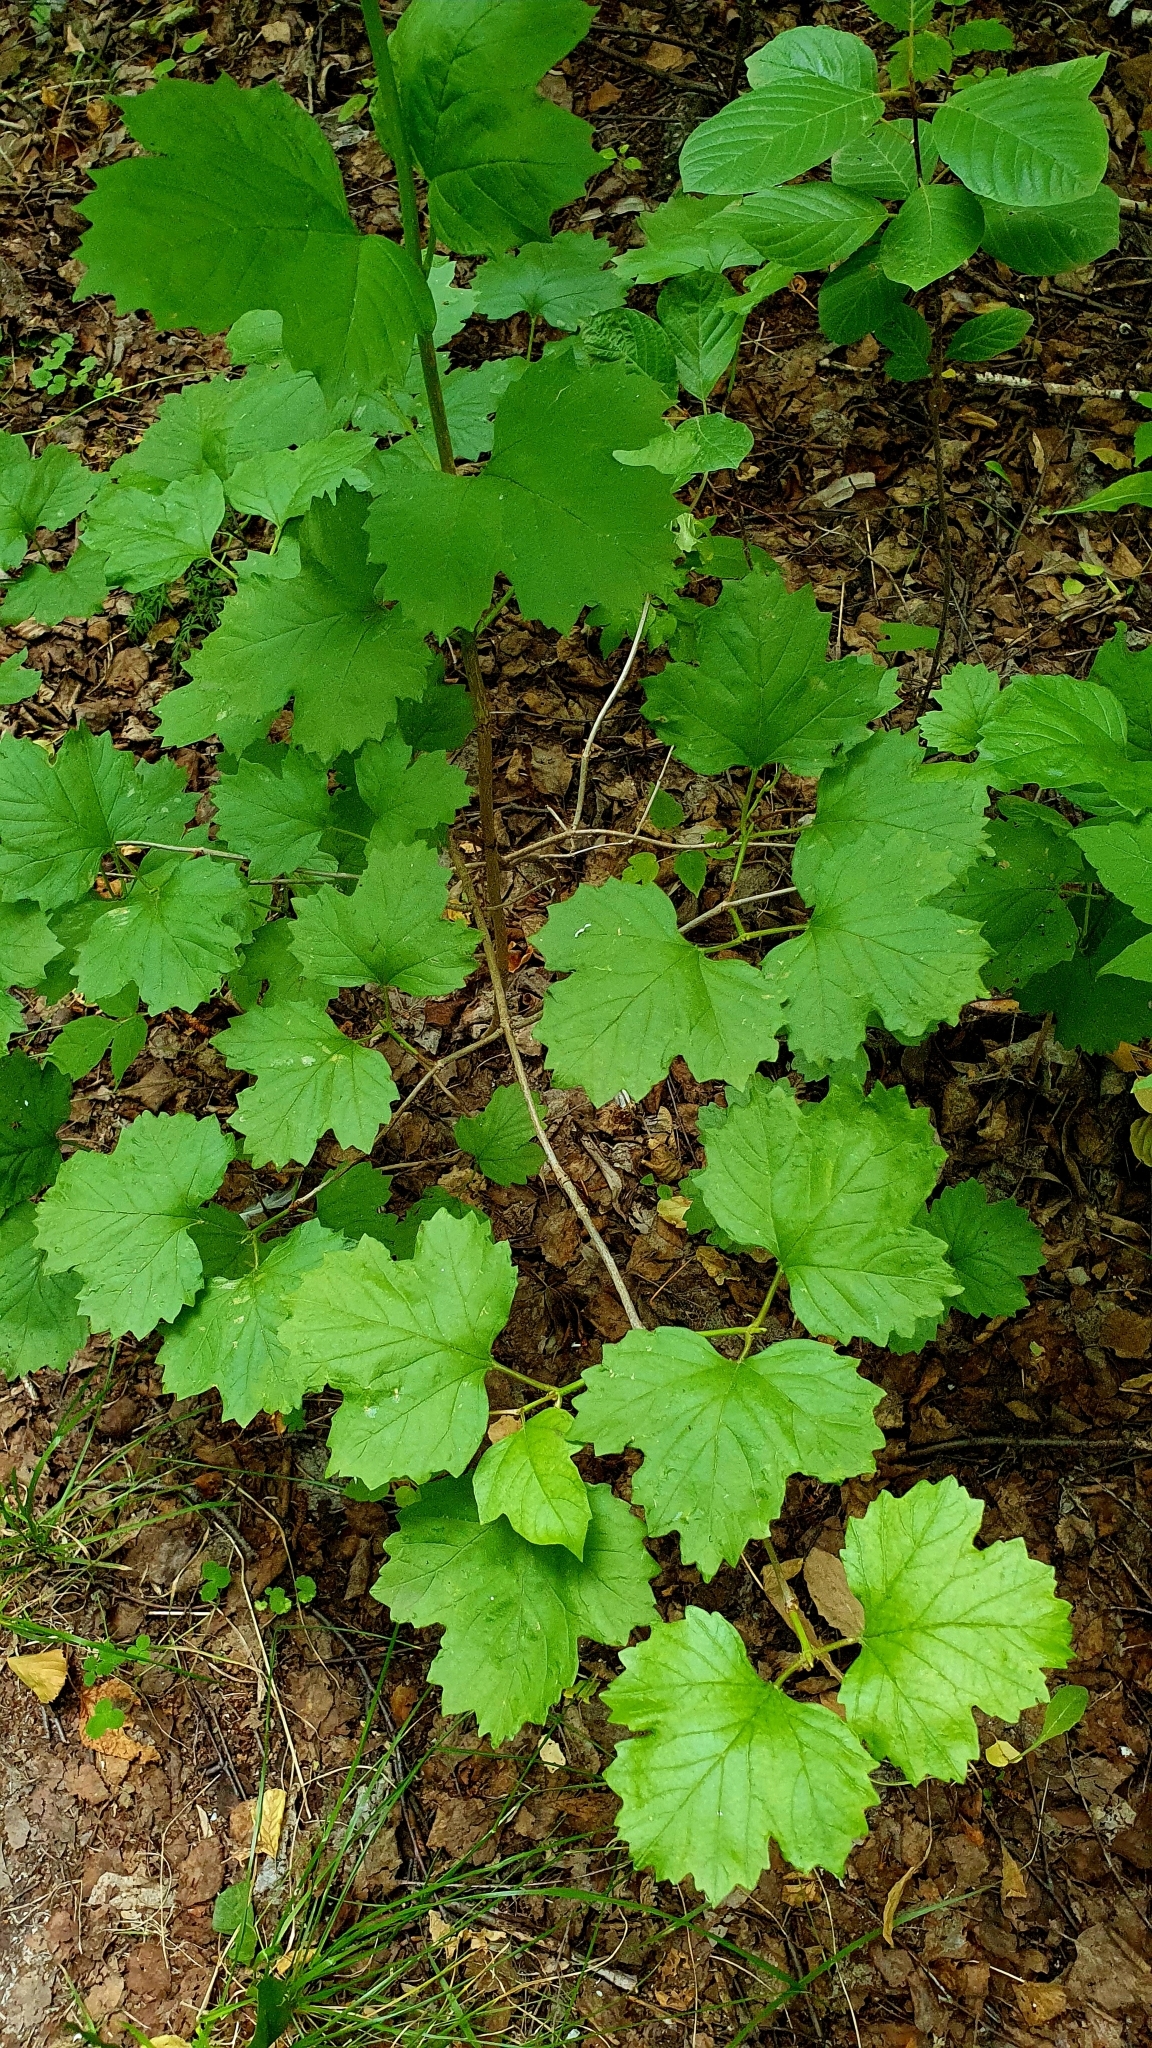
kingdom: Plantae
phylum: Tracheophyta
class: Magnoliopsida
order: Dipsacales
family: Viburnaceae
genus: Viburnum
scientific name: Viburnum opulus
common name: Guelder-rose
